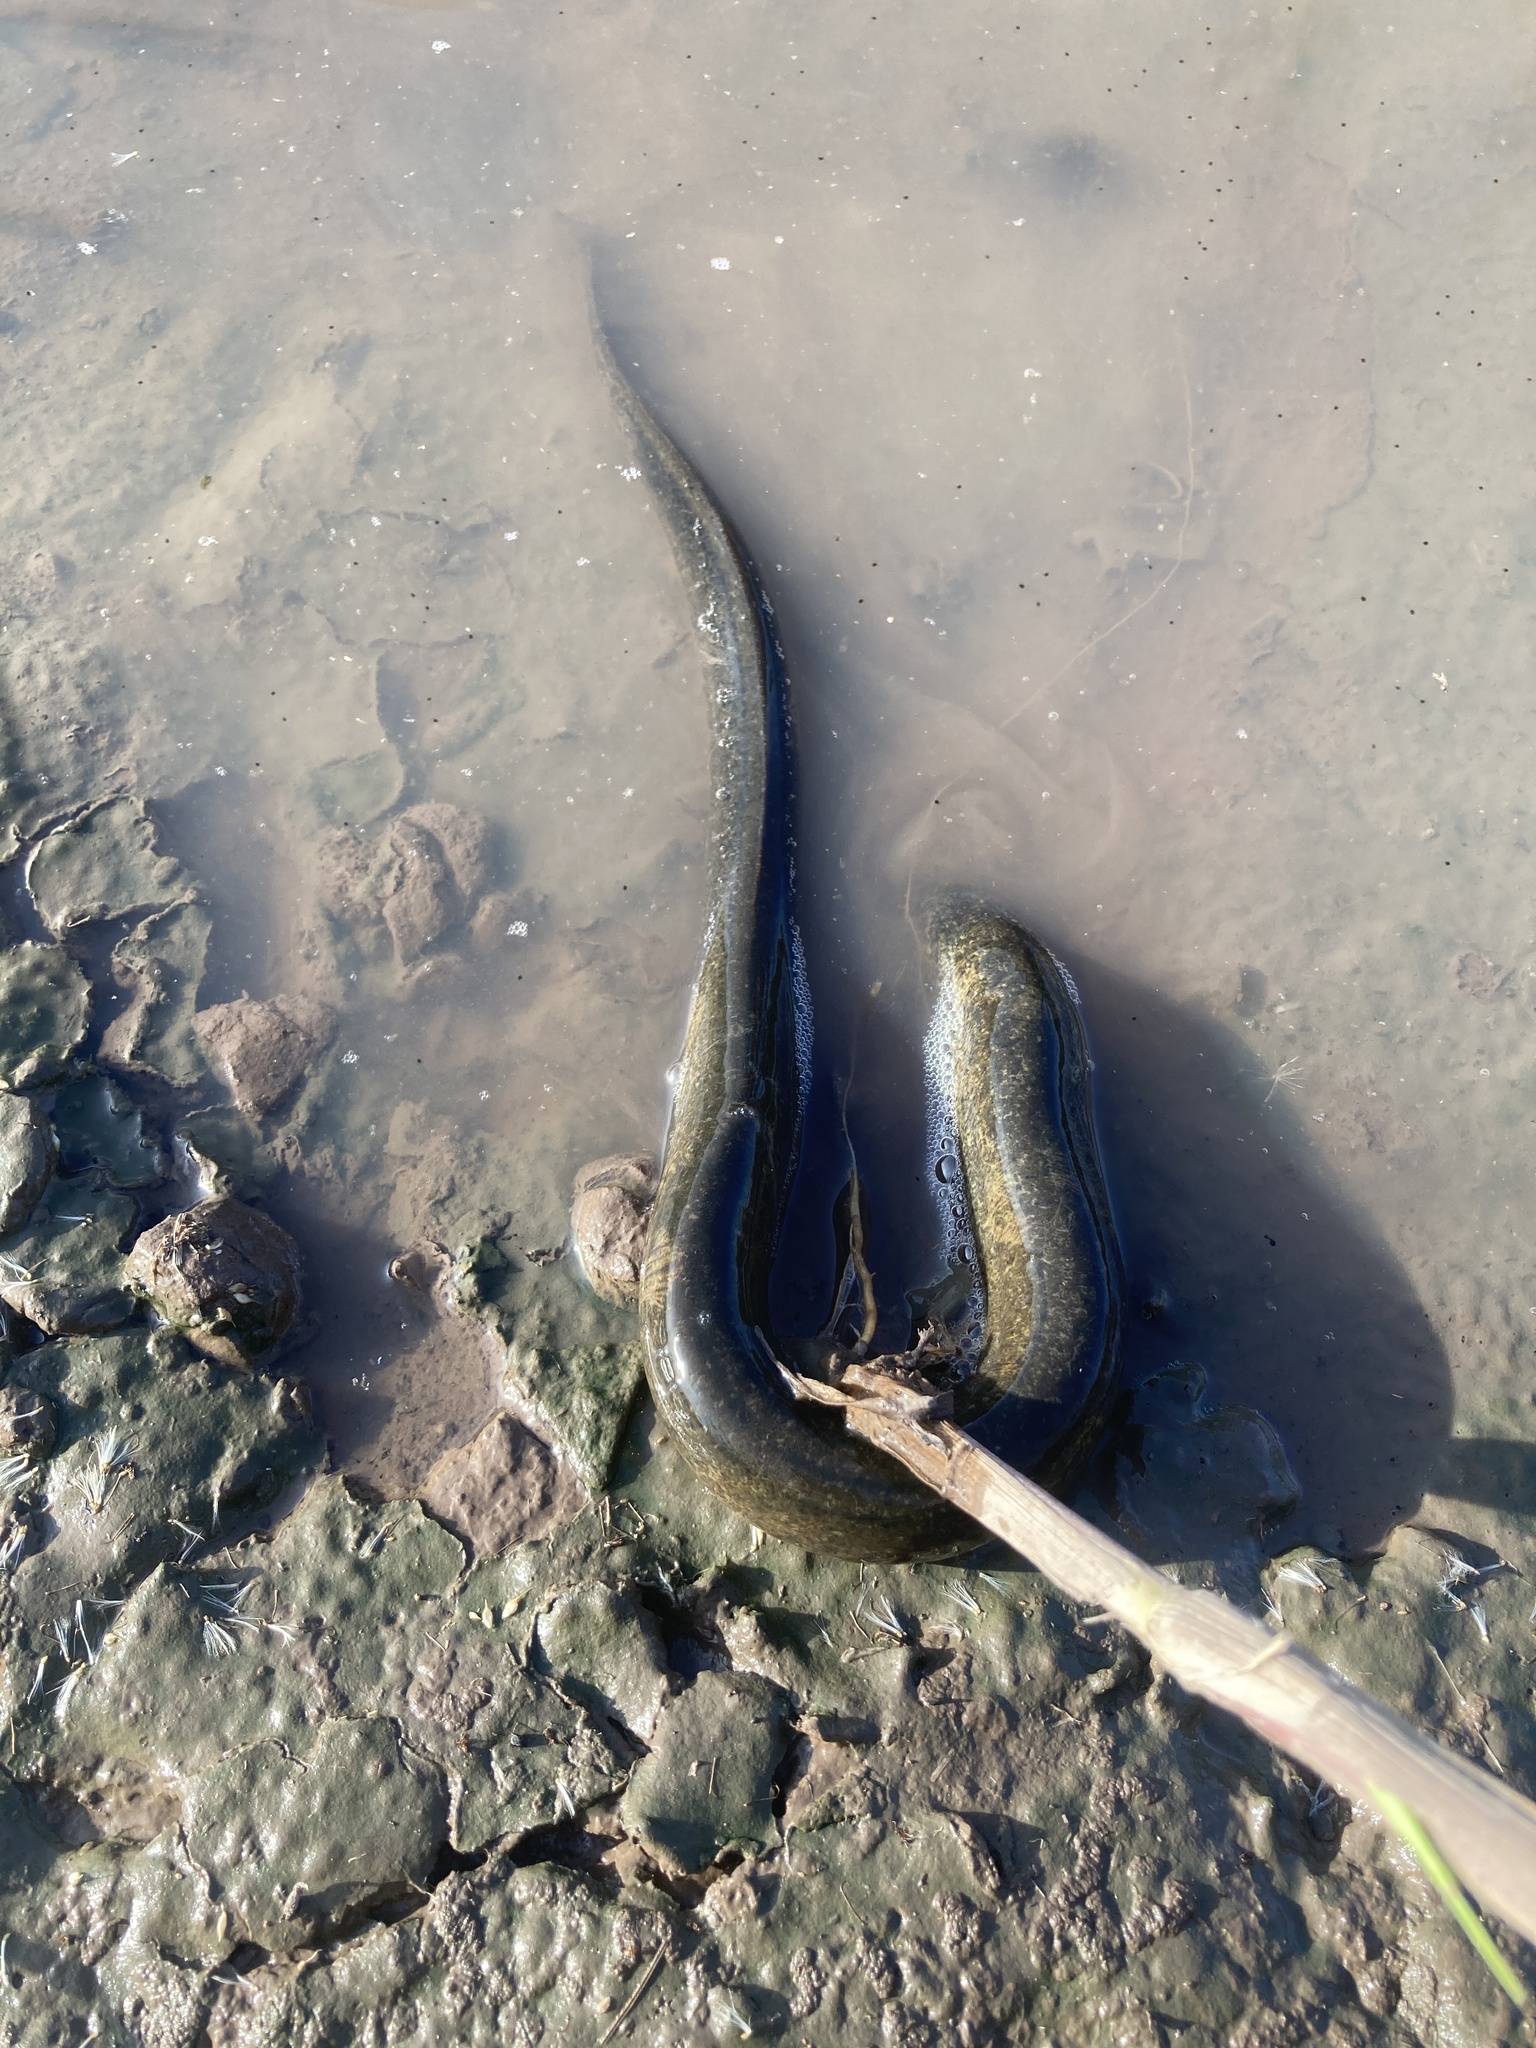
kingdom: Animalia
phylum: Chordata
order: Synbranchiformes
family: Synbranchidae
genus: Synbranchus
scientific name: Synbranchus marmoratus
